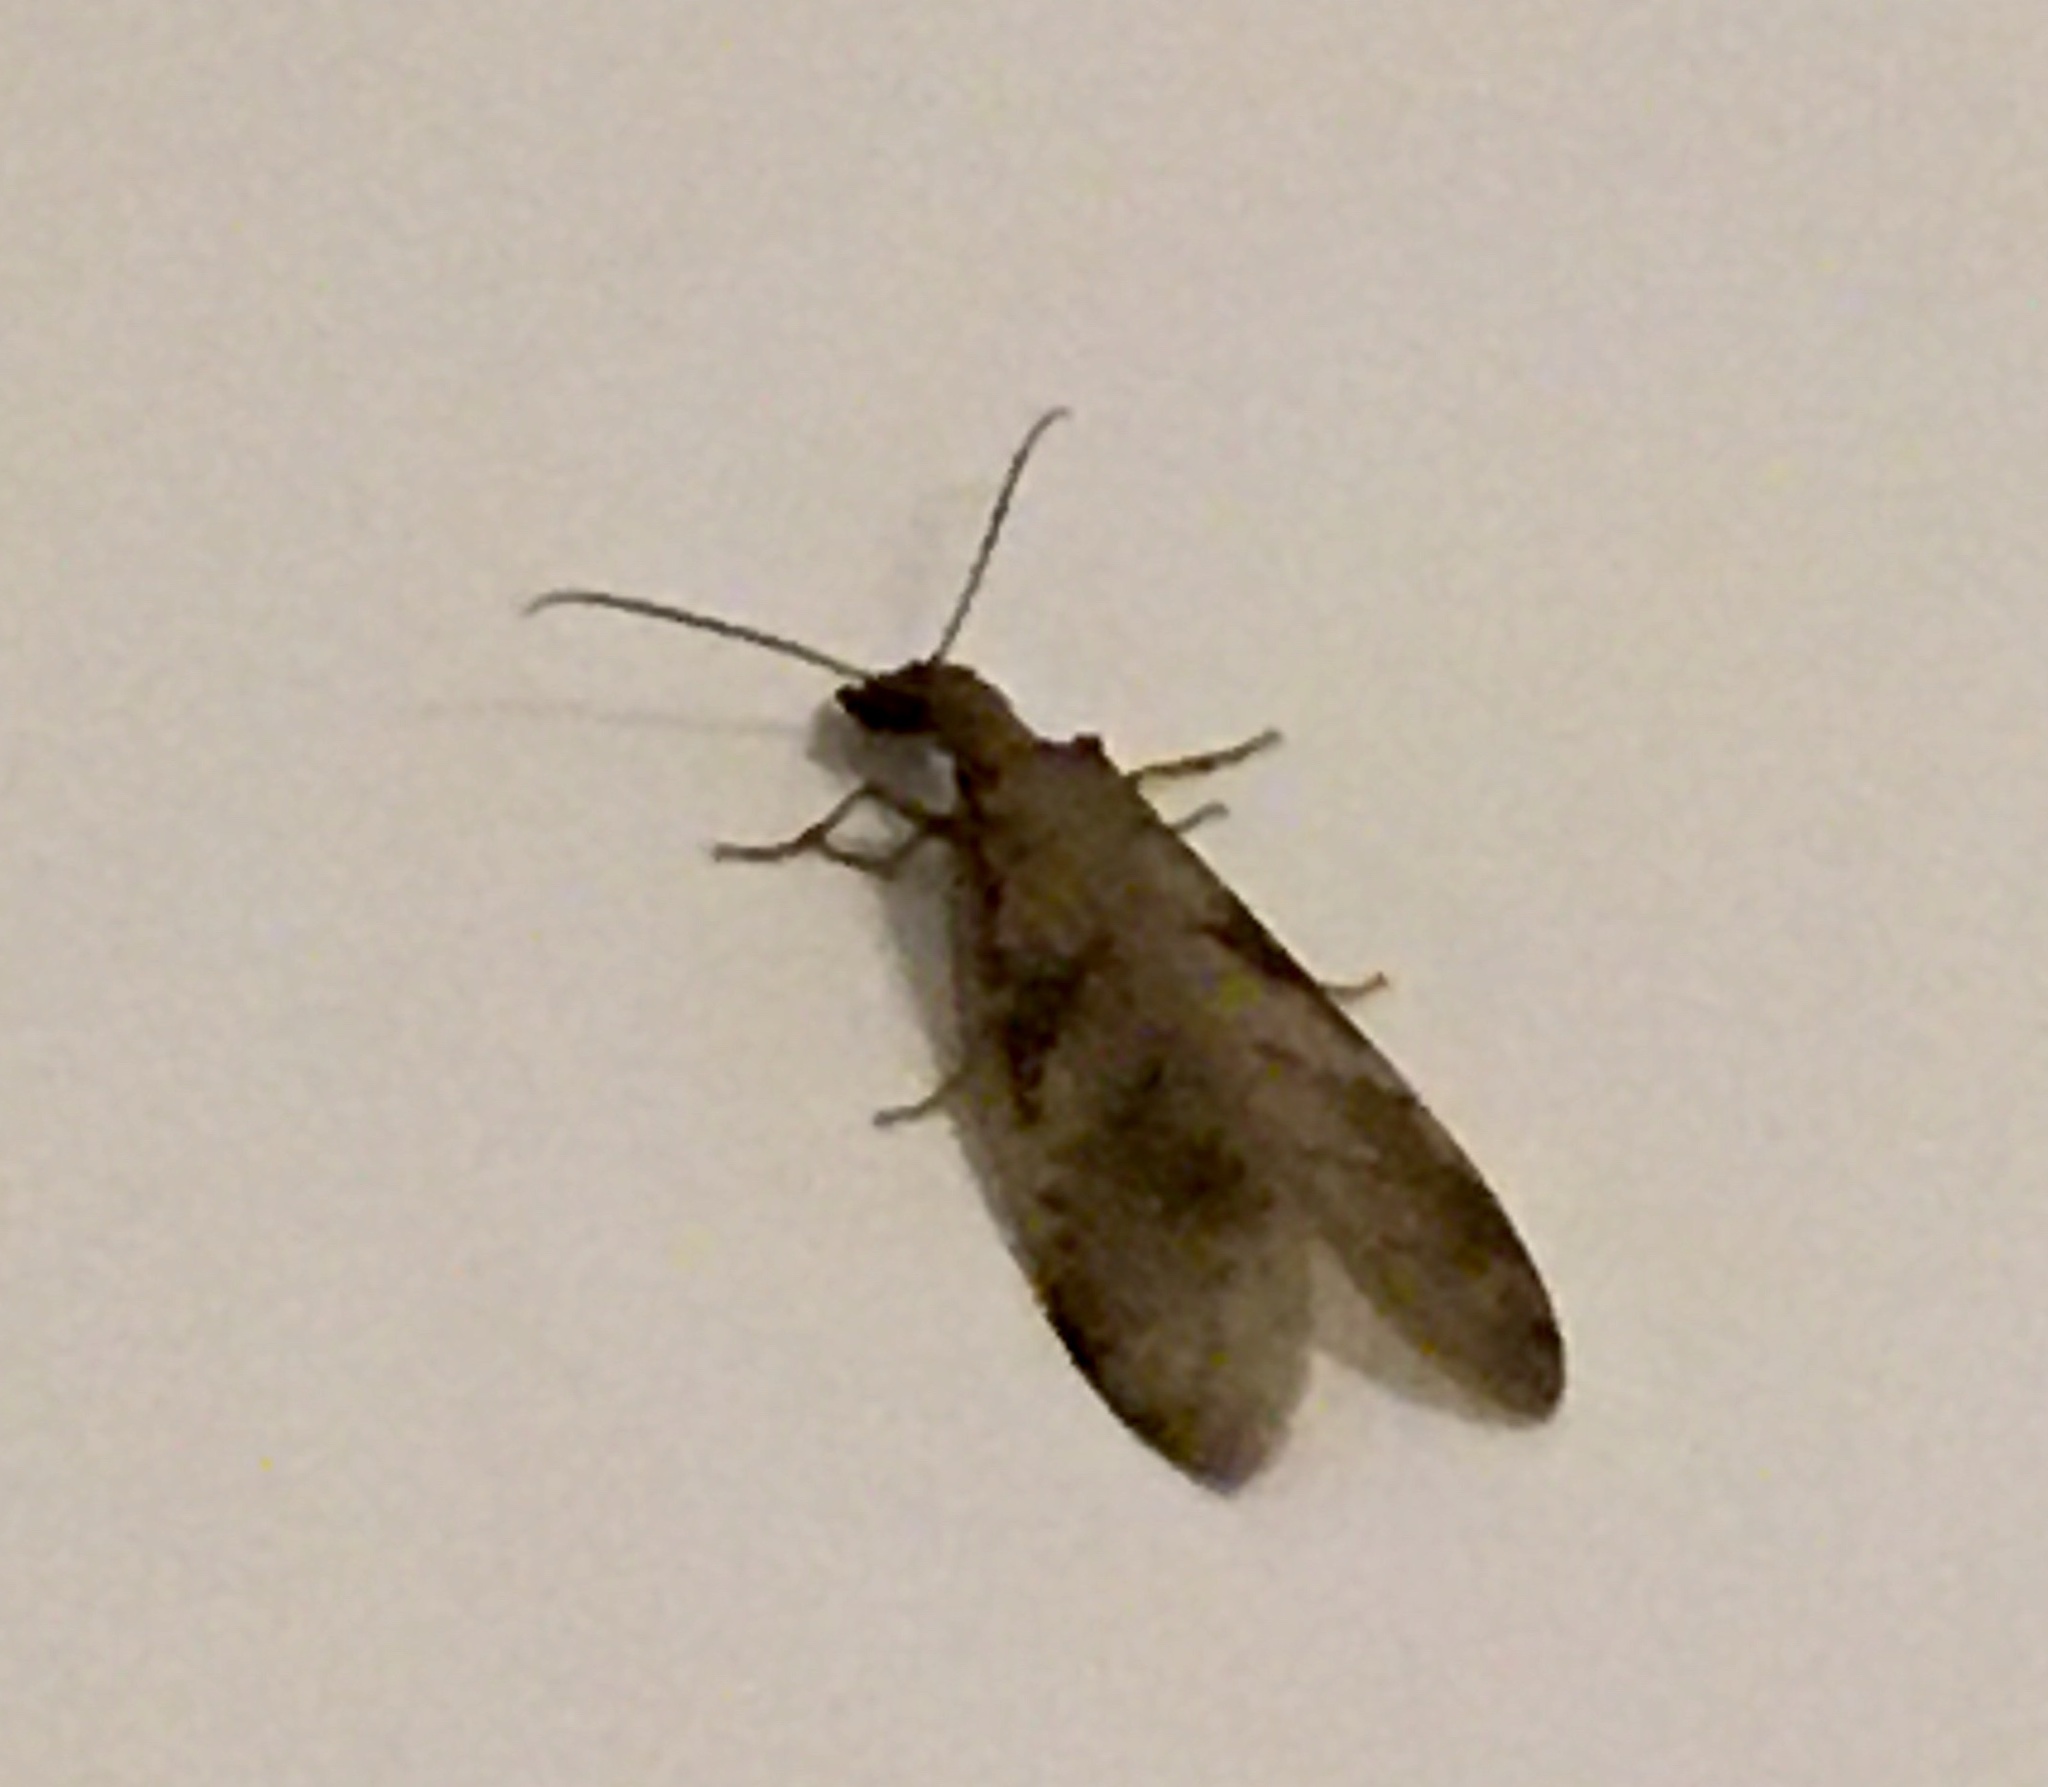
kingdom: Animalia
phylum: Arthropoda
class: Insecta
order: Megaloptera
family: Corydalidae
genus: Corydalus
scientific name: Corydalus flavicornis
